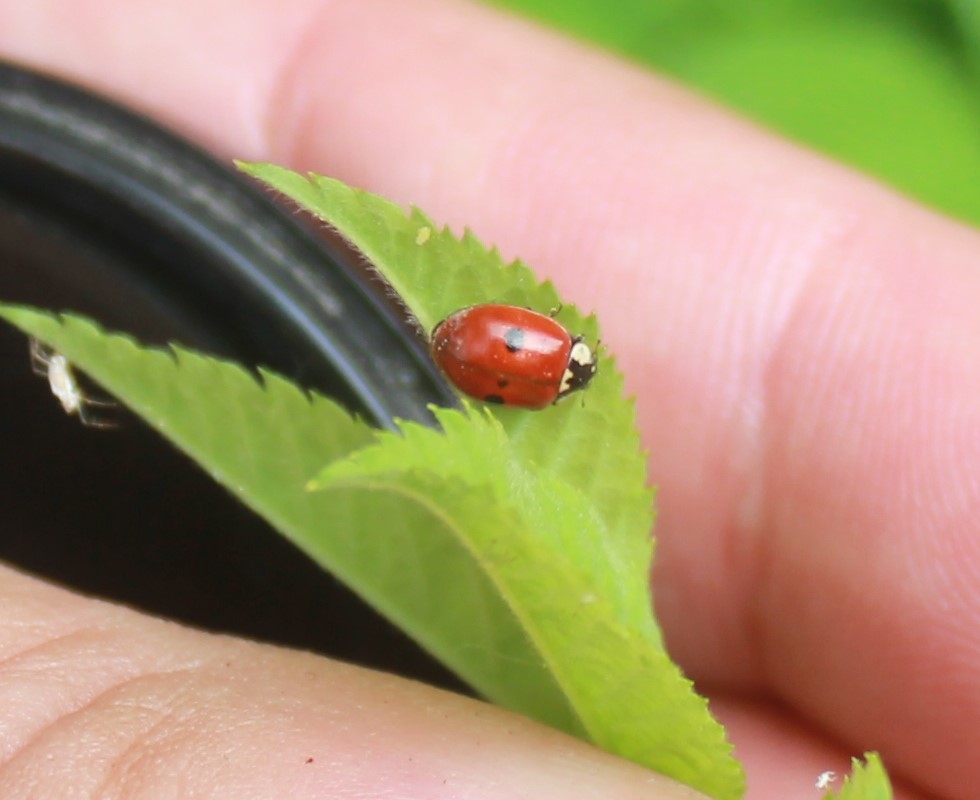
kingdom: Animalia
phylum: Arthropoda
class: Insecta
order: Coleoptera
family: Coccinellidae
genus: Adalia
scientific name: Adalia bipunctata
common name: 2-spot ladybird
